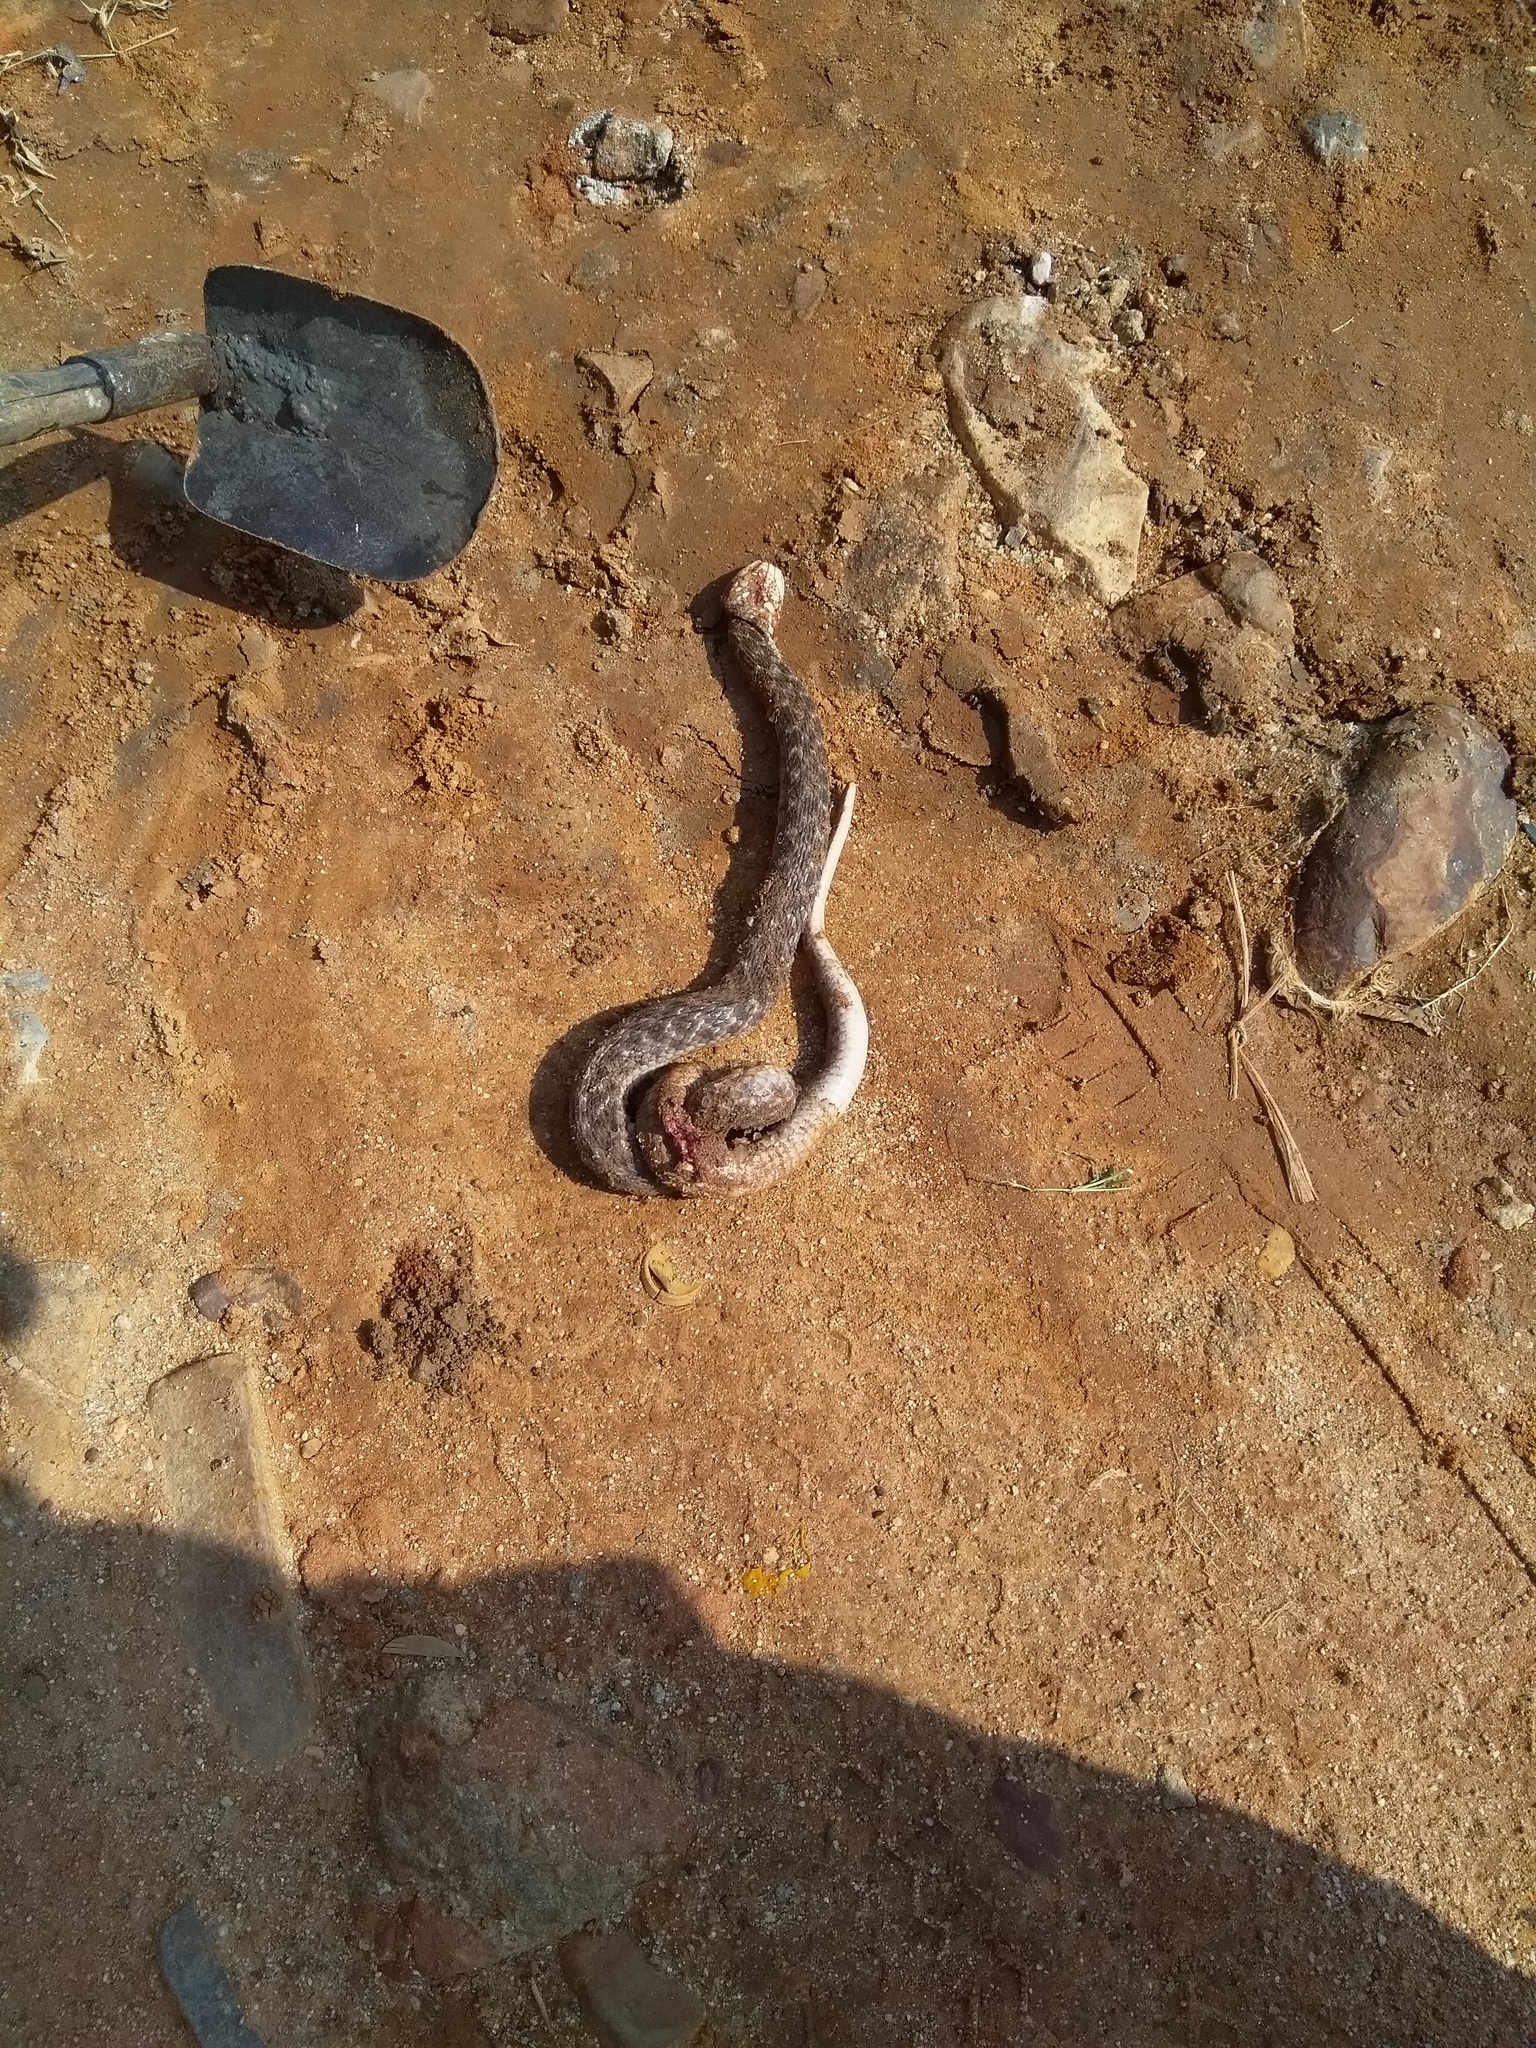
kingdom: Animalia
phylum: Chordata
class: Squamata
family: Colubridae
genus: Fowlea
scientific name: Fowlea piscator
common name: Asiatic water snake
